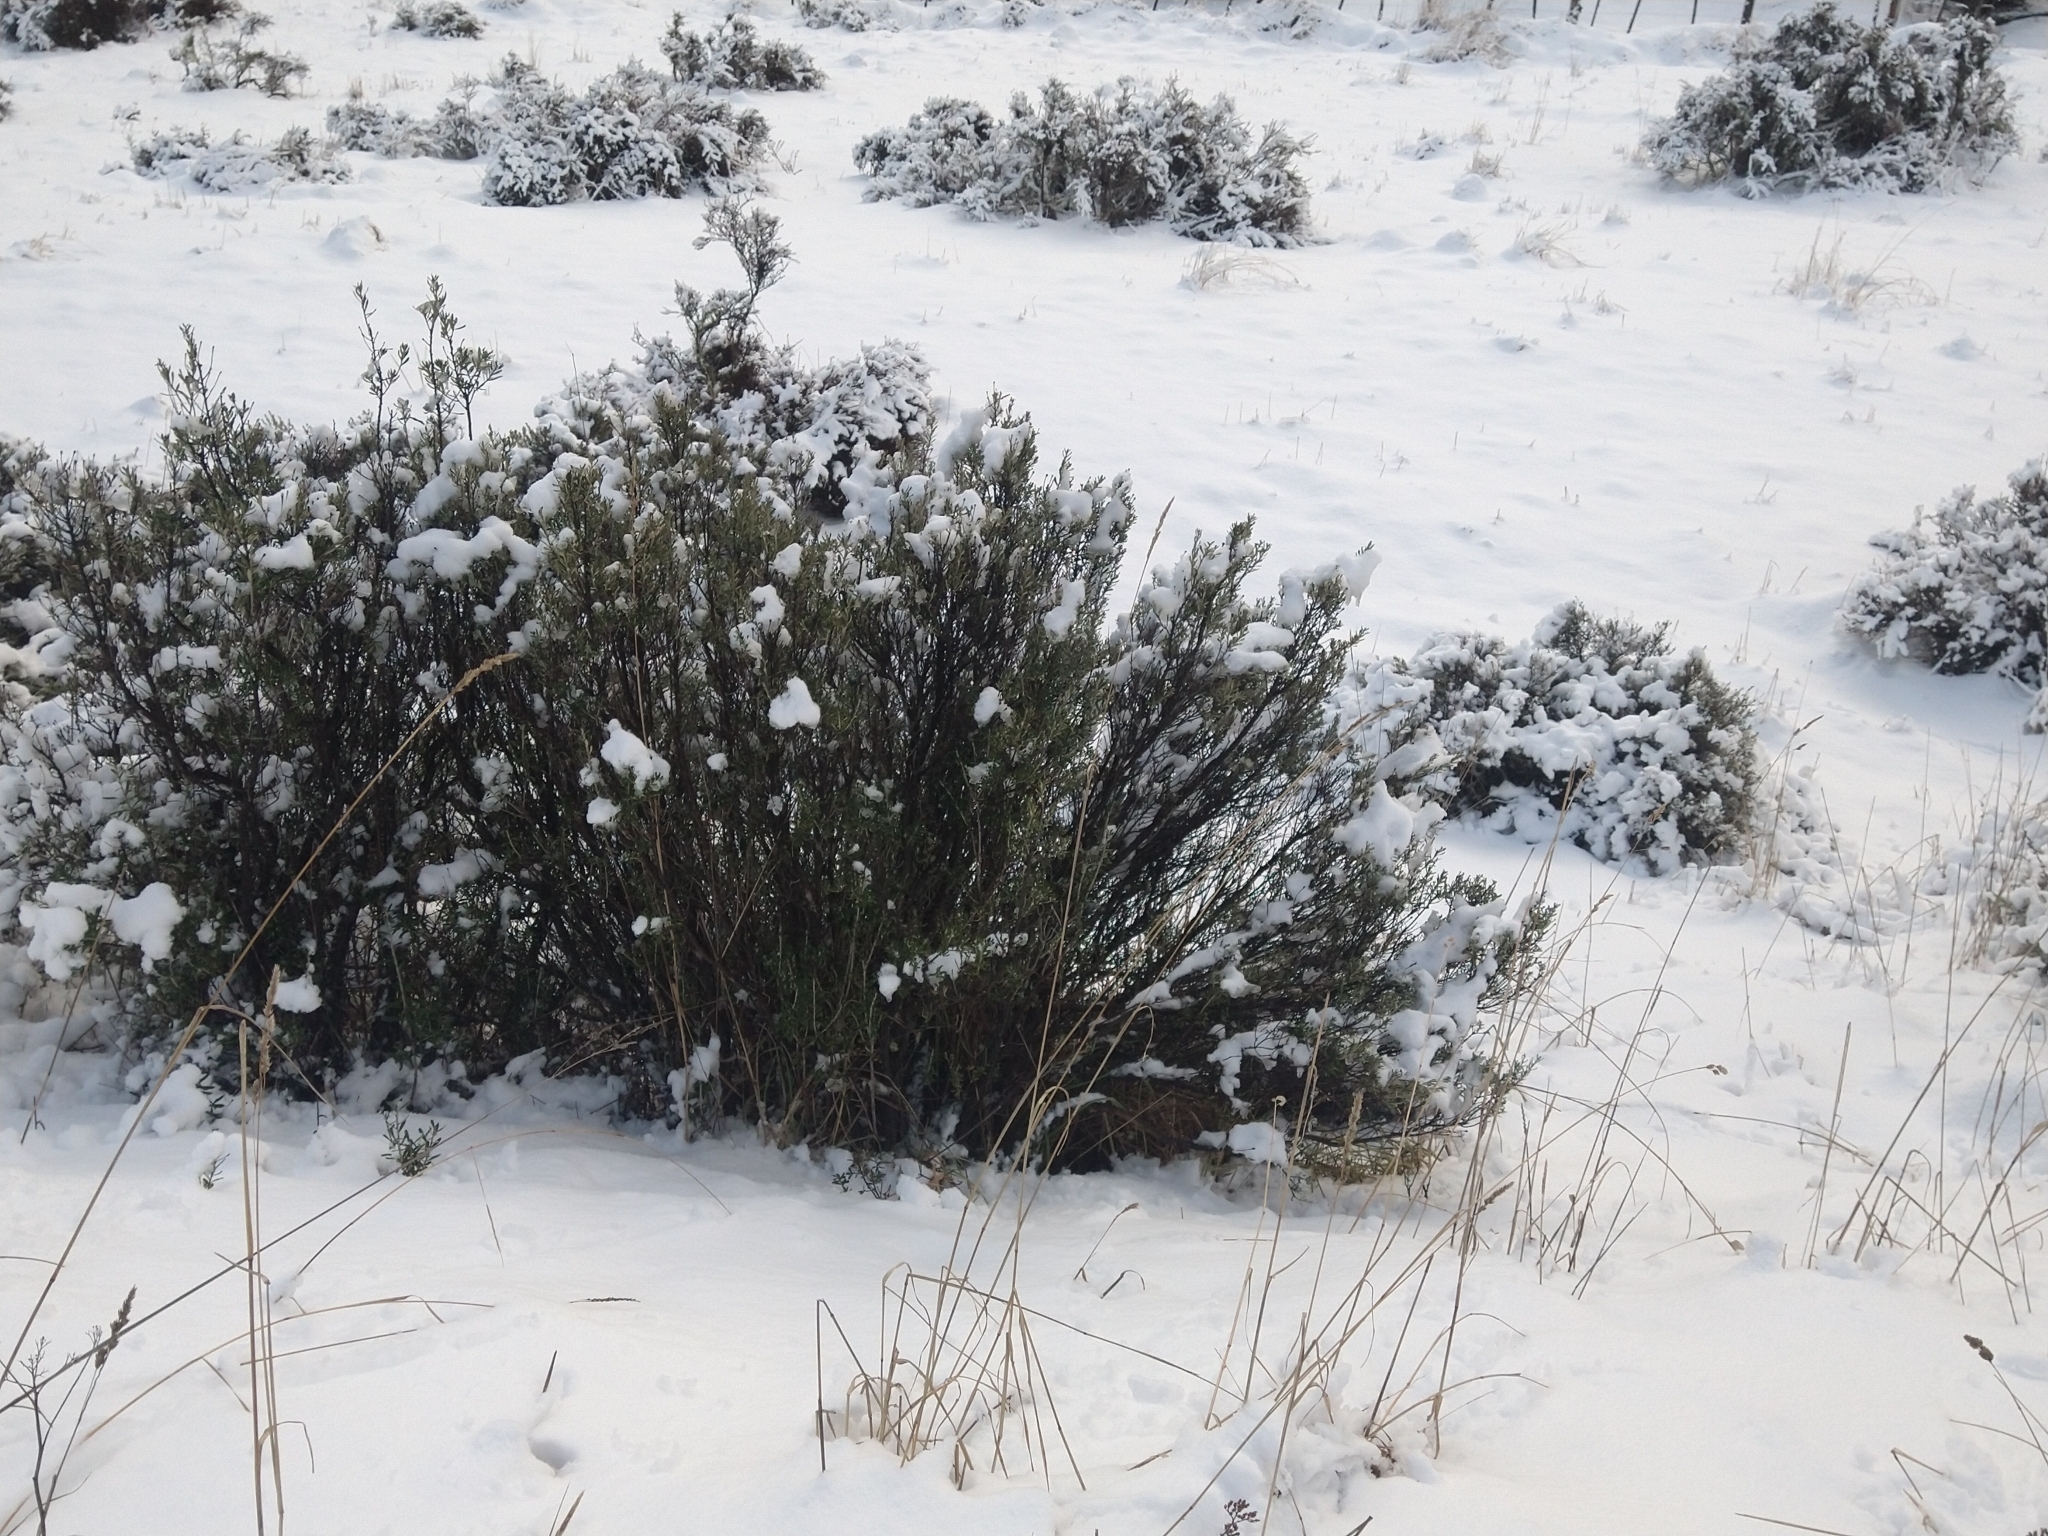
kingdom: Plantae
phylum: Tracheophyta
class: Magnoliopsida
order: Asterales
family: Asteraceae
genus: Chiliotrichum
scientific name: Chiliotrichum diffusum
